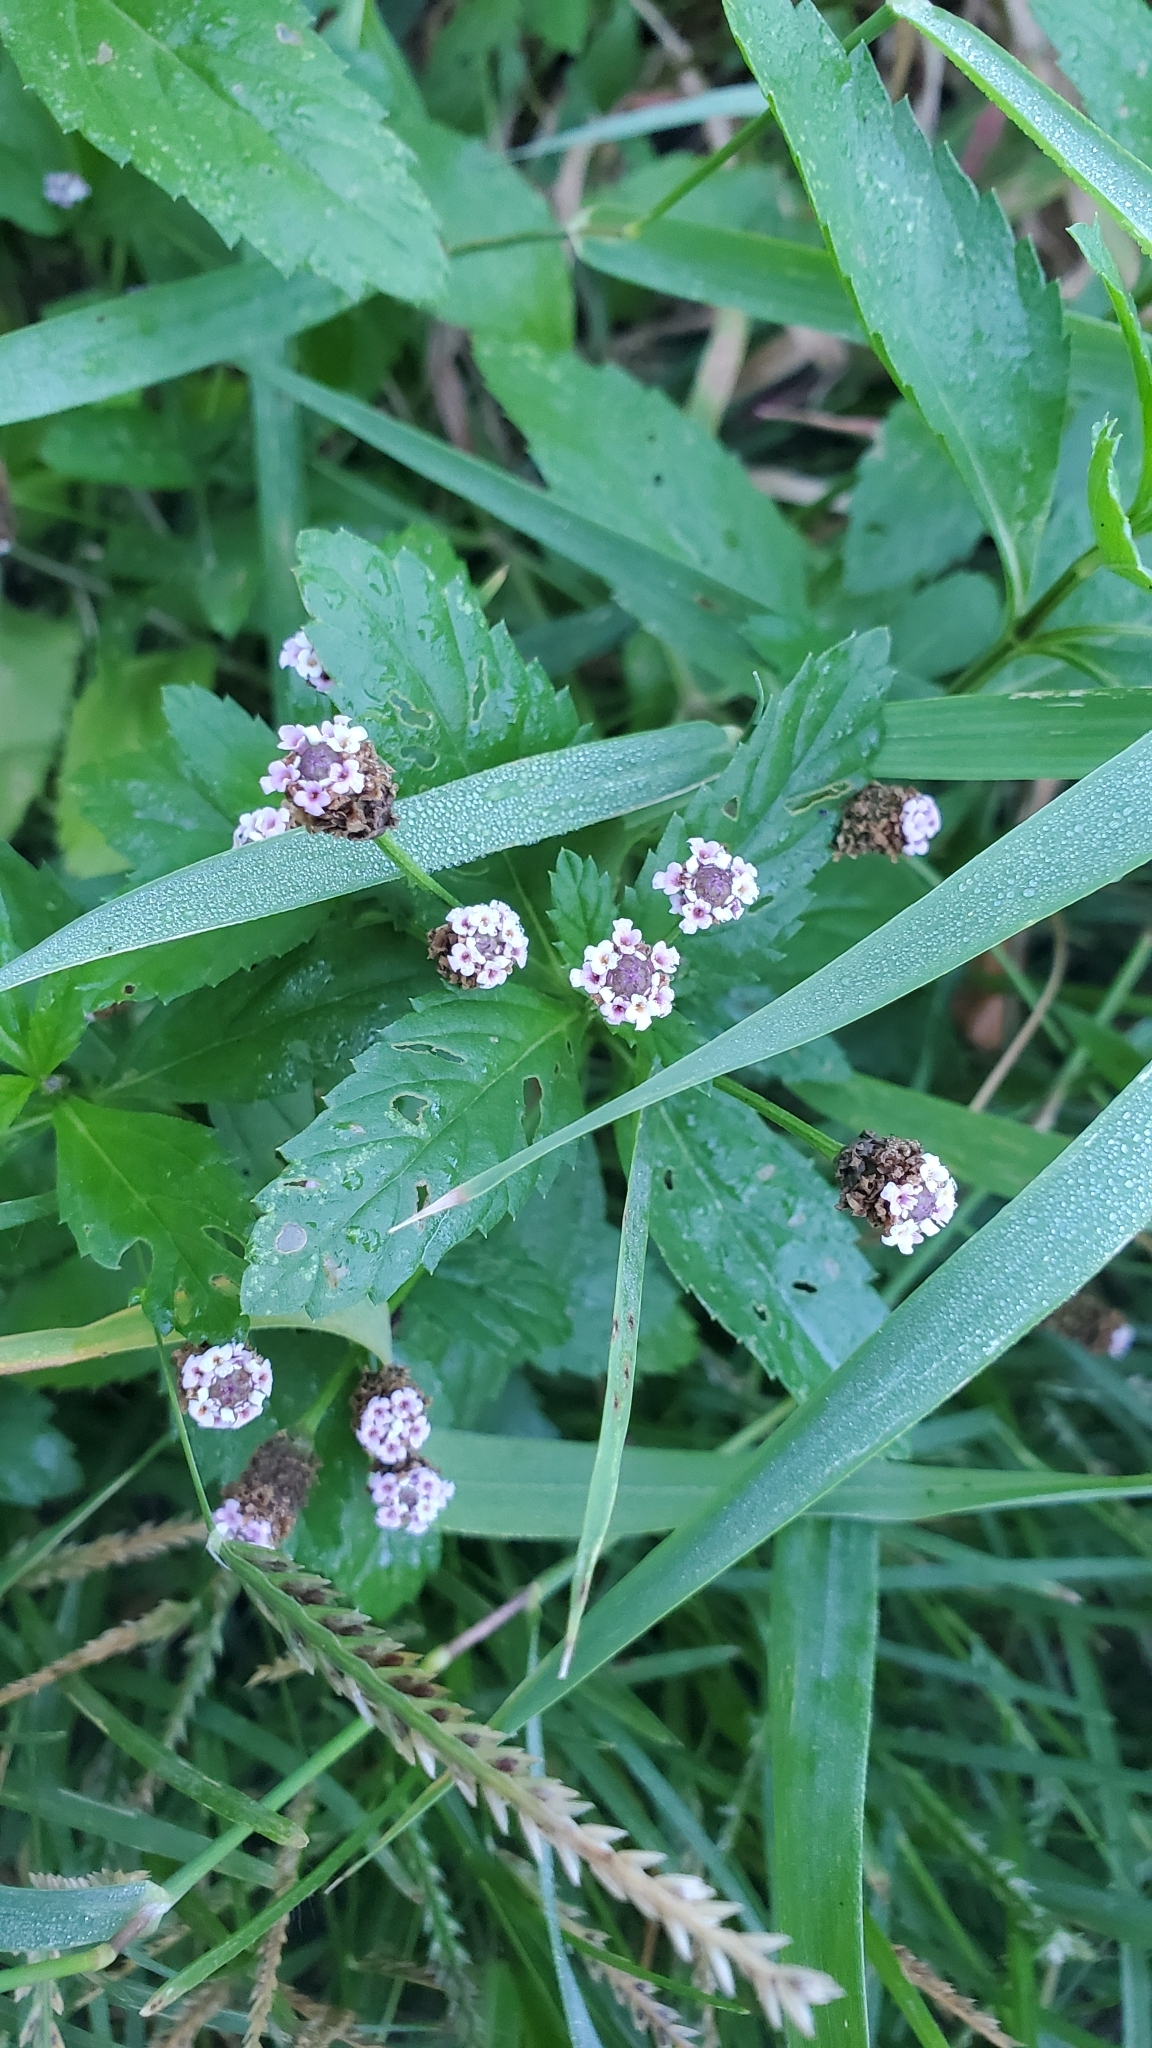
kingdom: Plantae
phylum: Tracheophyta
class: Magnoliopsida
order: Lamiales
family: Verbenaceae
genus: Phyla
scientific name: Phyla lanceolata
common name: Northern fogfruit
